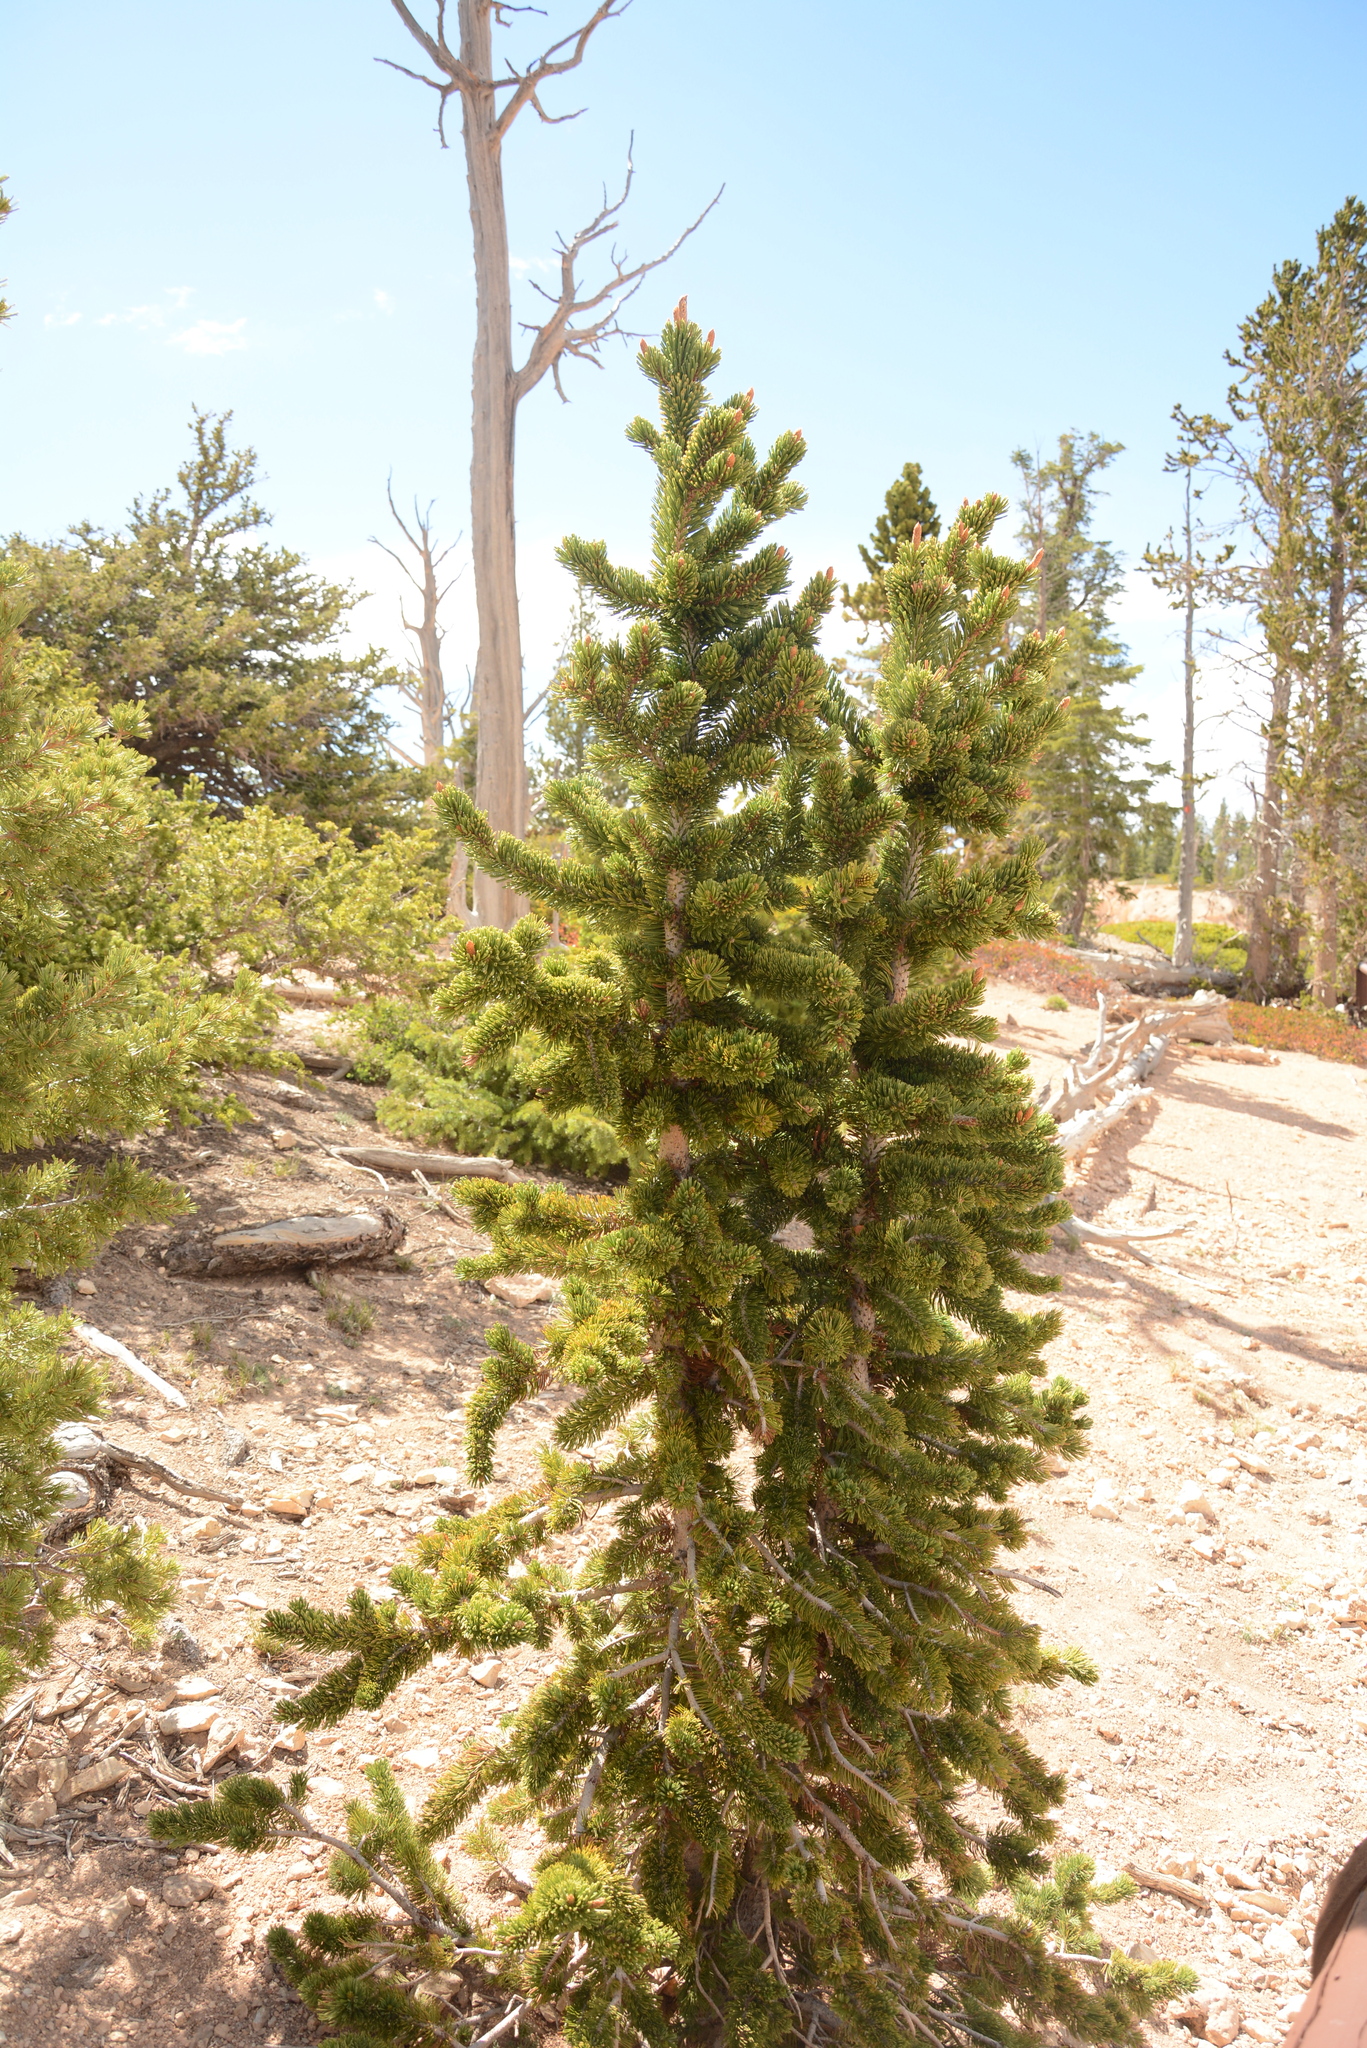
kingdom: Plantae
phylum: Tracheophyta
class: Pinopsida
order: Pinales
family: Pinaceae
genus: Pinus
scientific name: Pinus longaeva
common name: Intermountain bristlecone pine
